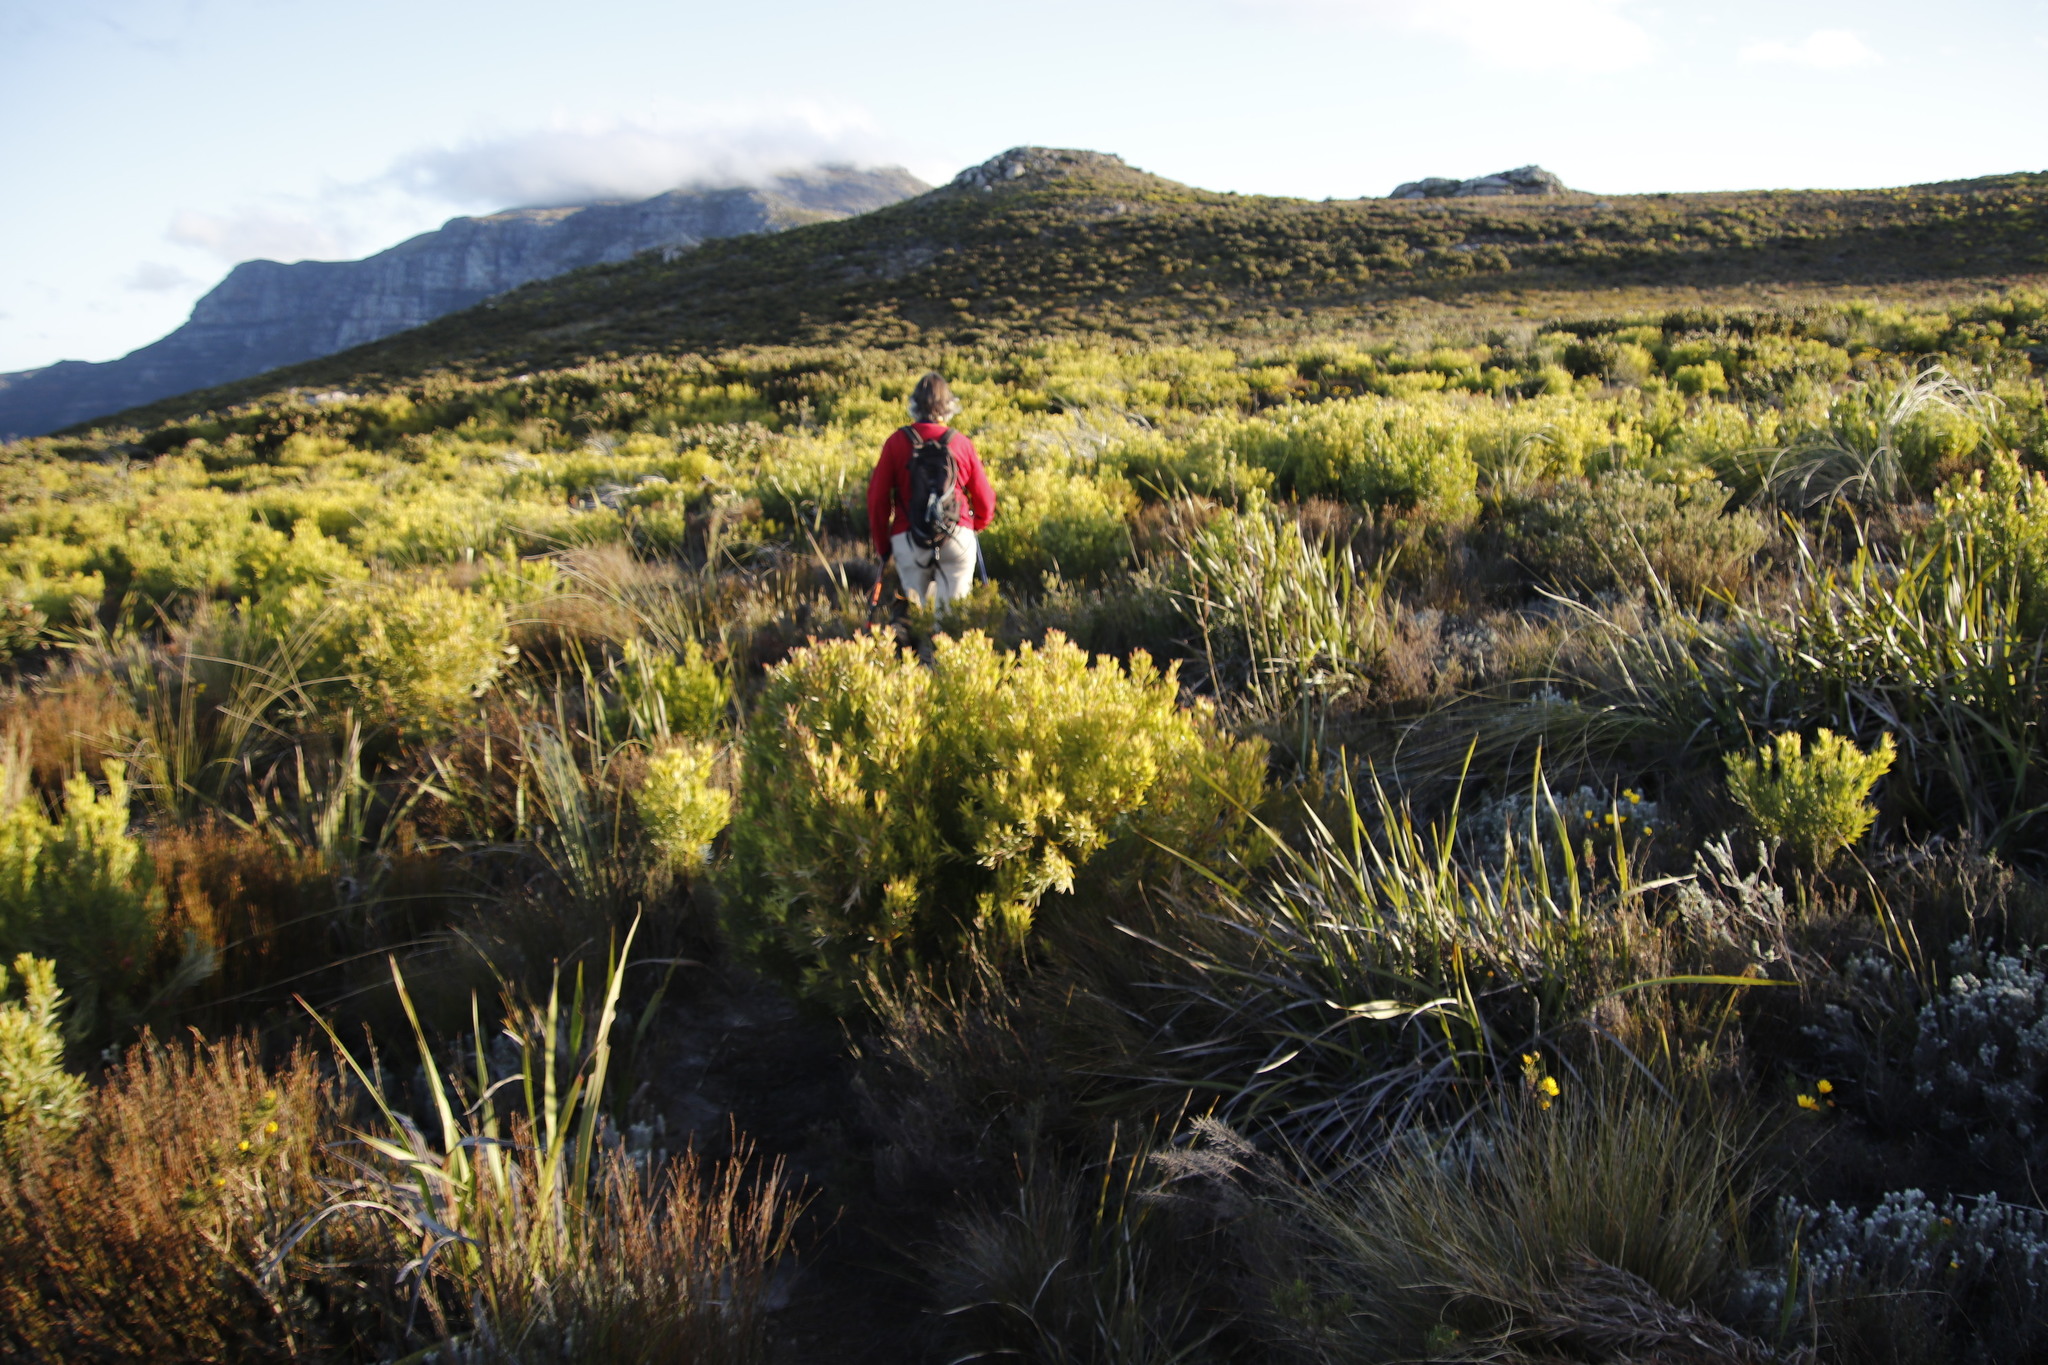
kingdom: Plantae
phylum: Tracheophyta
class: Magnoliopsida
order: Proteales
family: Proteaceae
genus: Leucadendron
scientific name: Leucadendron xanthoconus
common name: Sickle-leaf conebush
